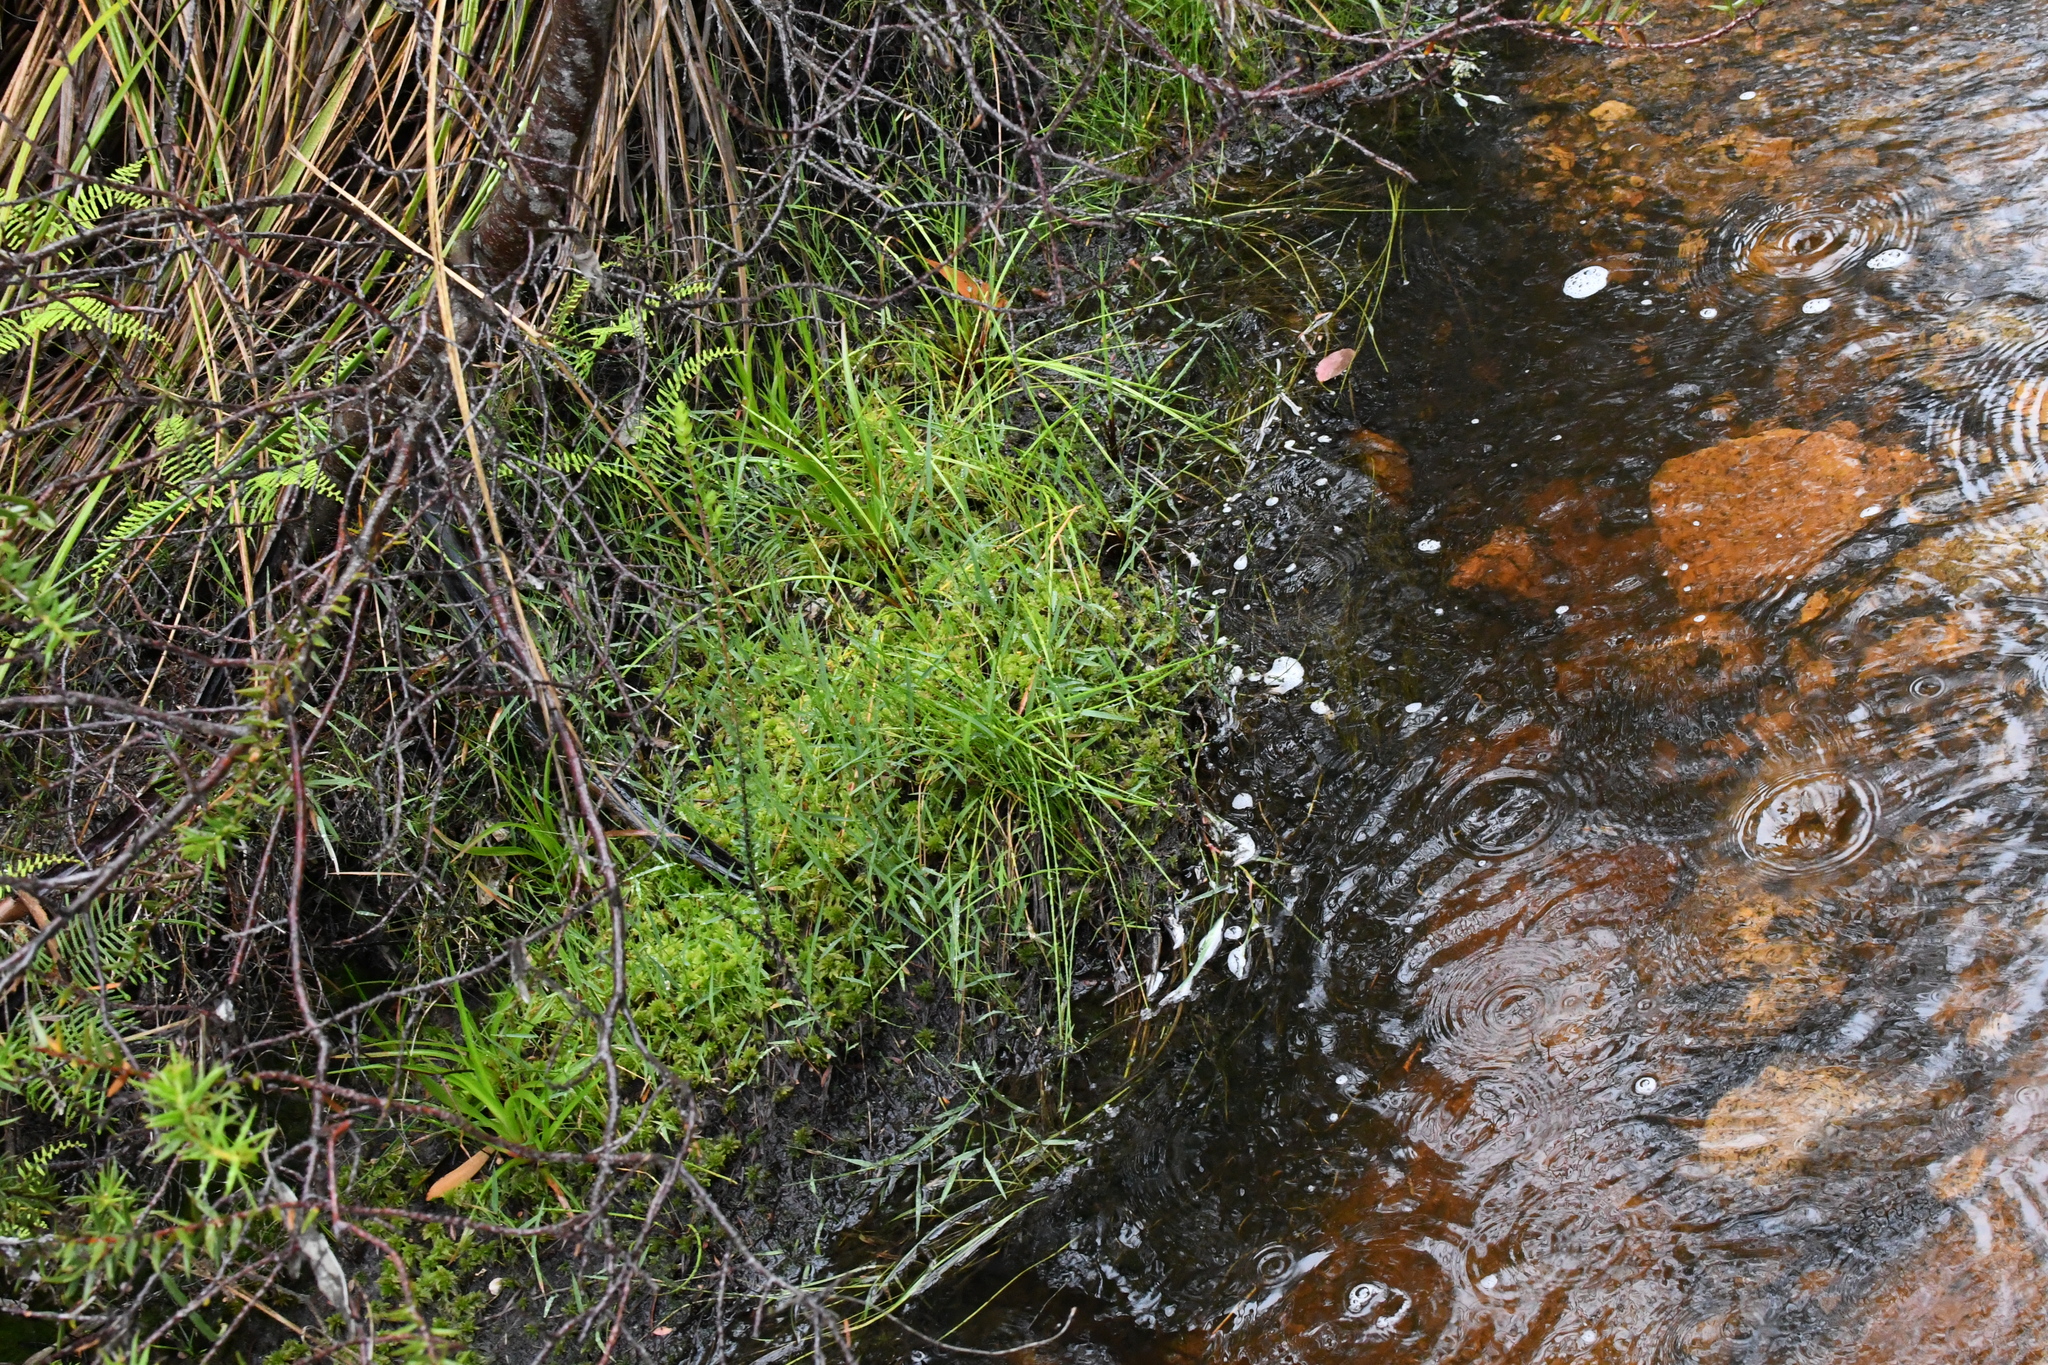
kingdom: Plantae
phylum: Bryophyta
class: Sphagnopsida
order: Sphagnales
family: Sphagnaceae
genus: Sphagnum
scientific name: Sphagnum novozelandicum
